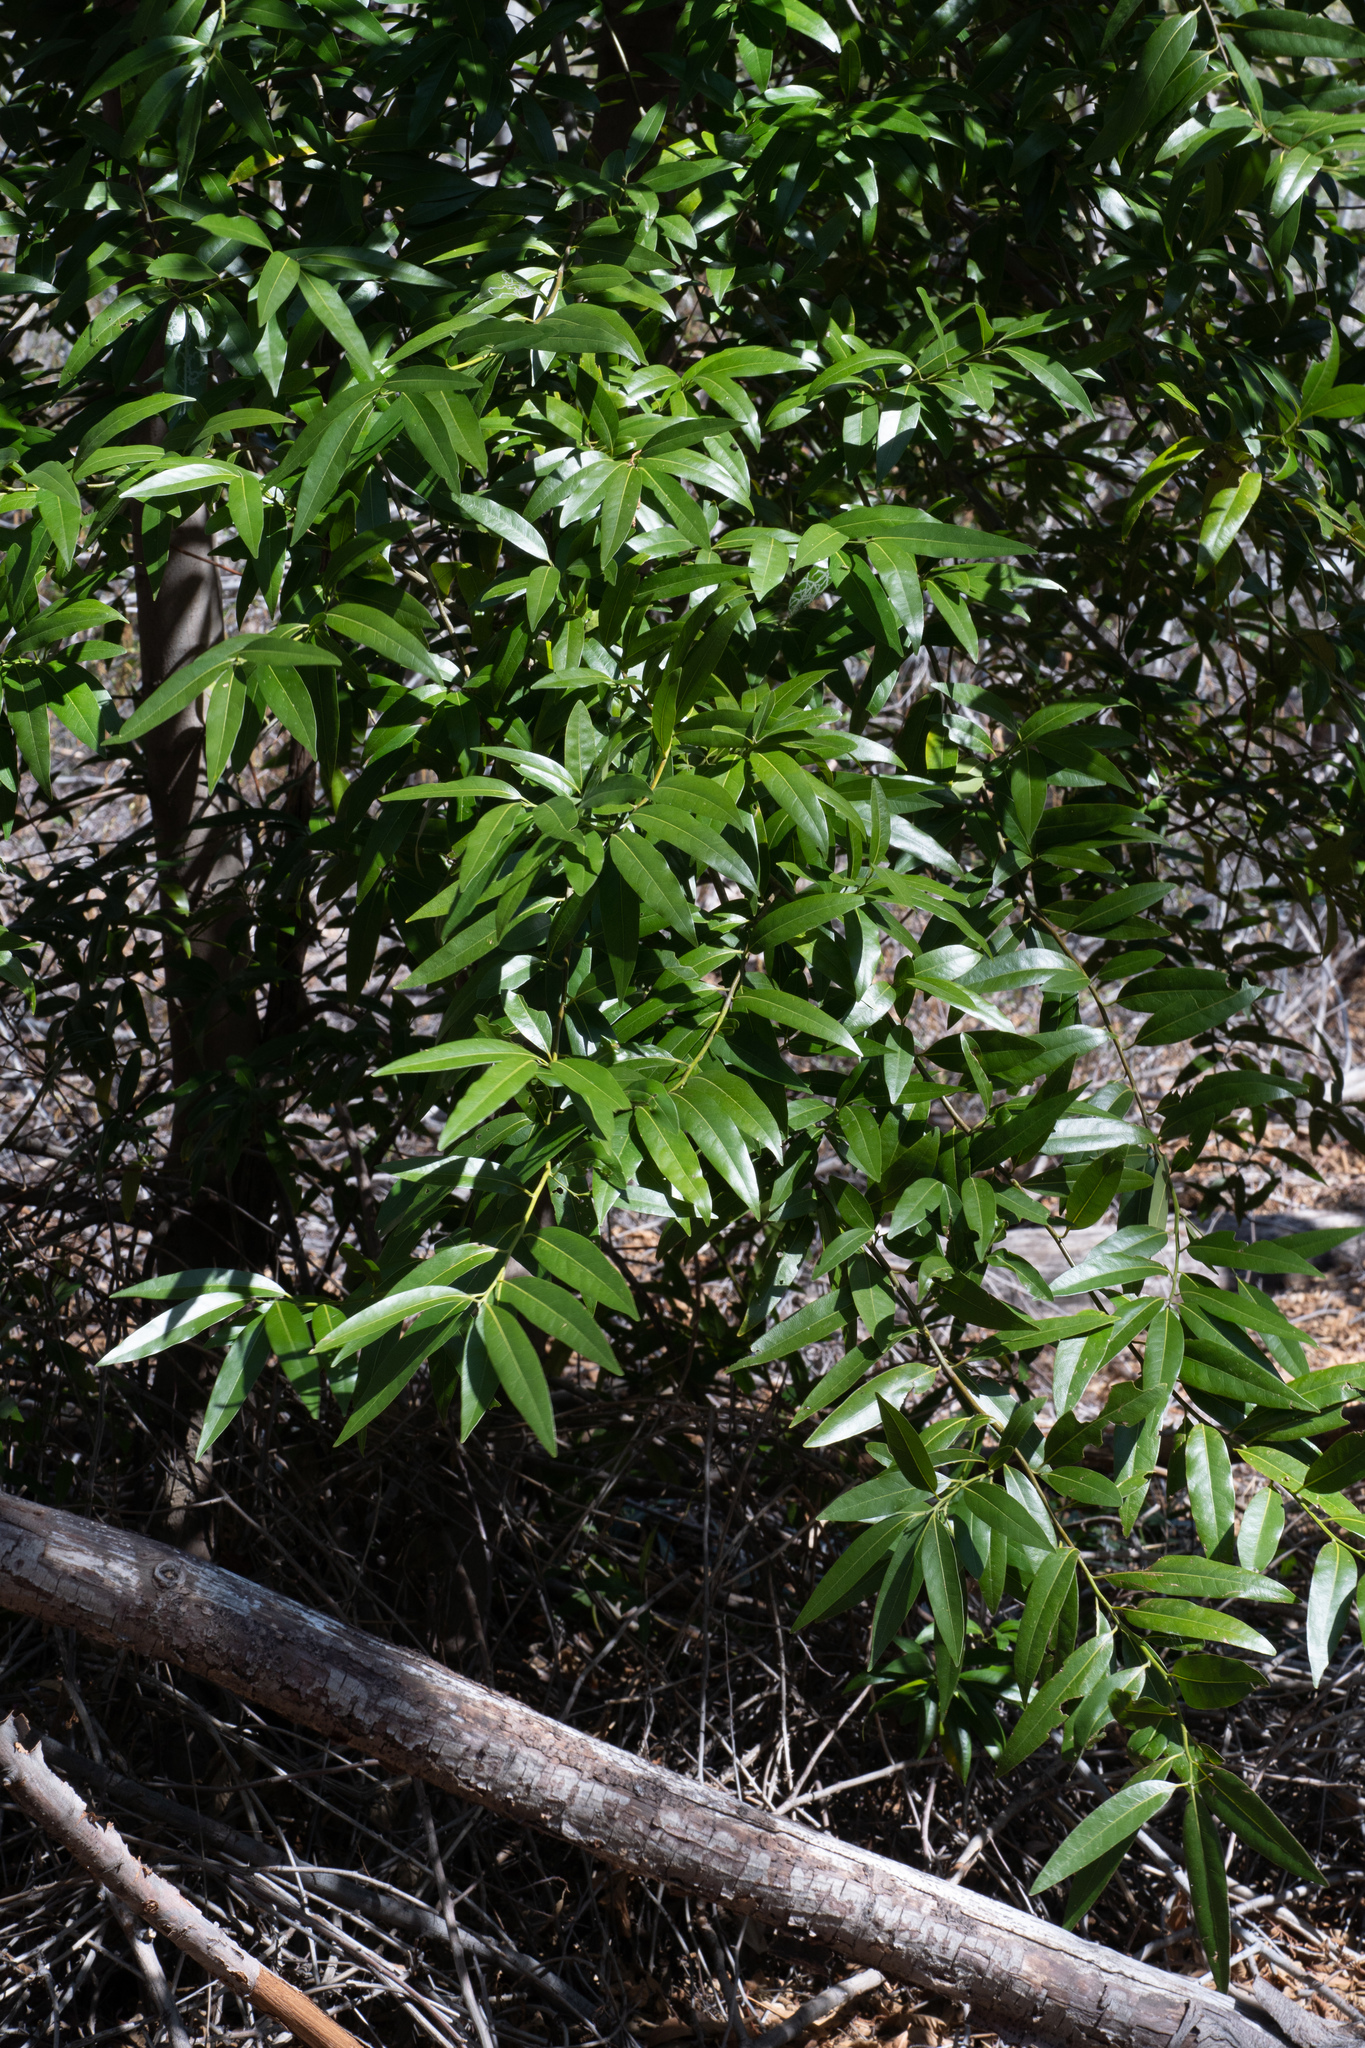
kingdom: Plantae
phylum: Tracheophyta
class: Magnoliopsida
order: Laurales
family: Lauraceae
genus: Umbellularia
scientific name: Umbellularia californica
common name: California bay
